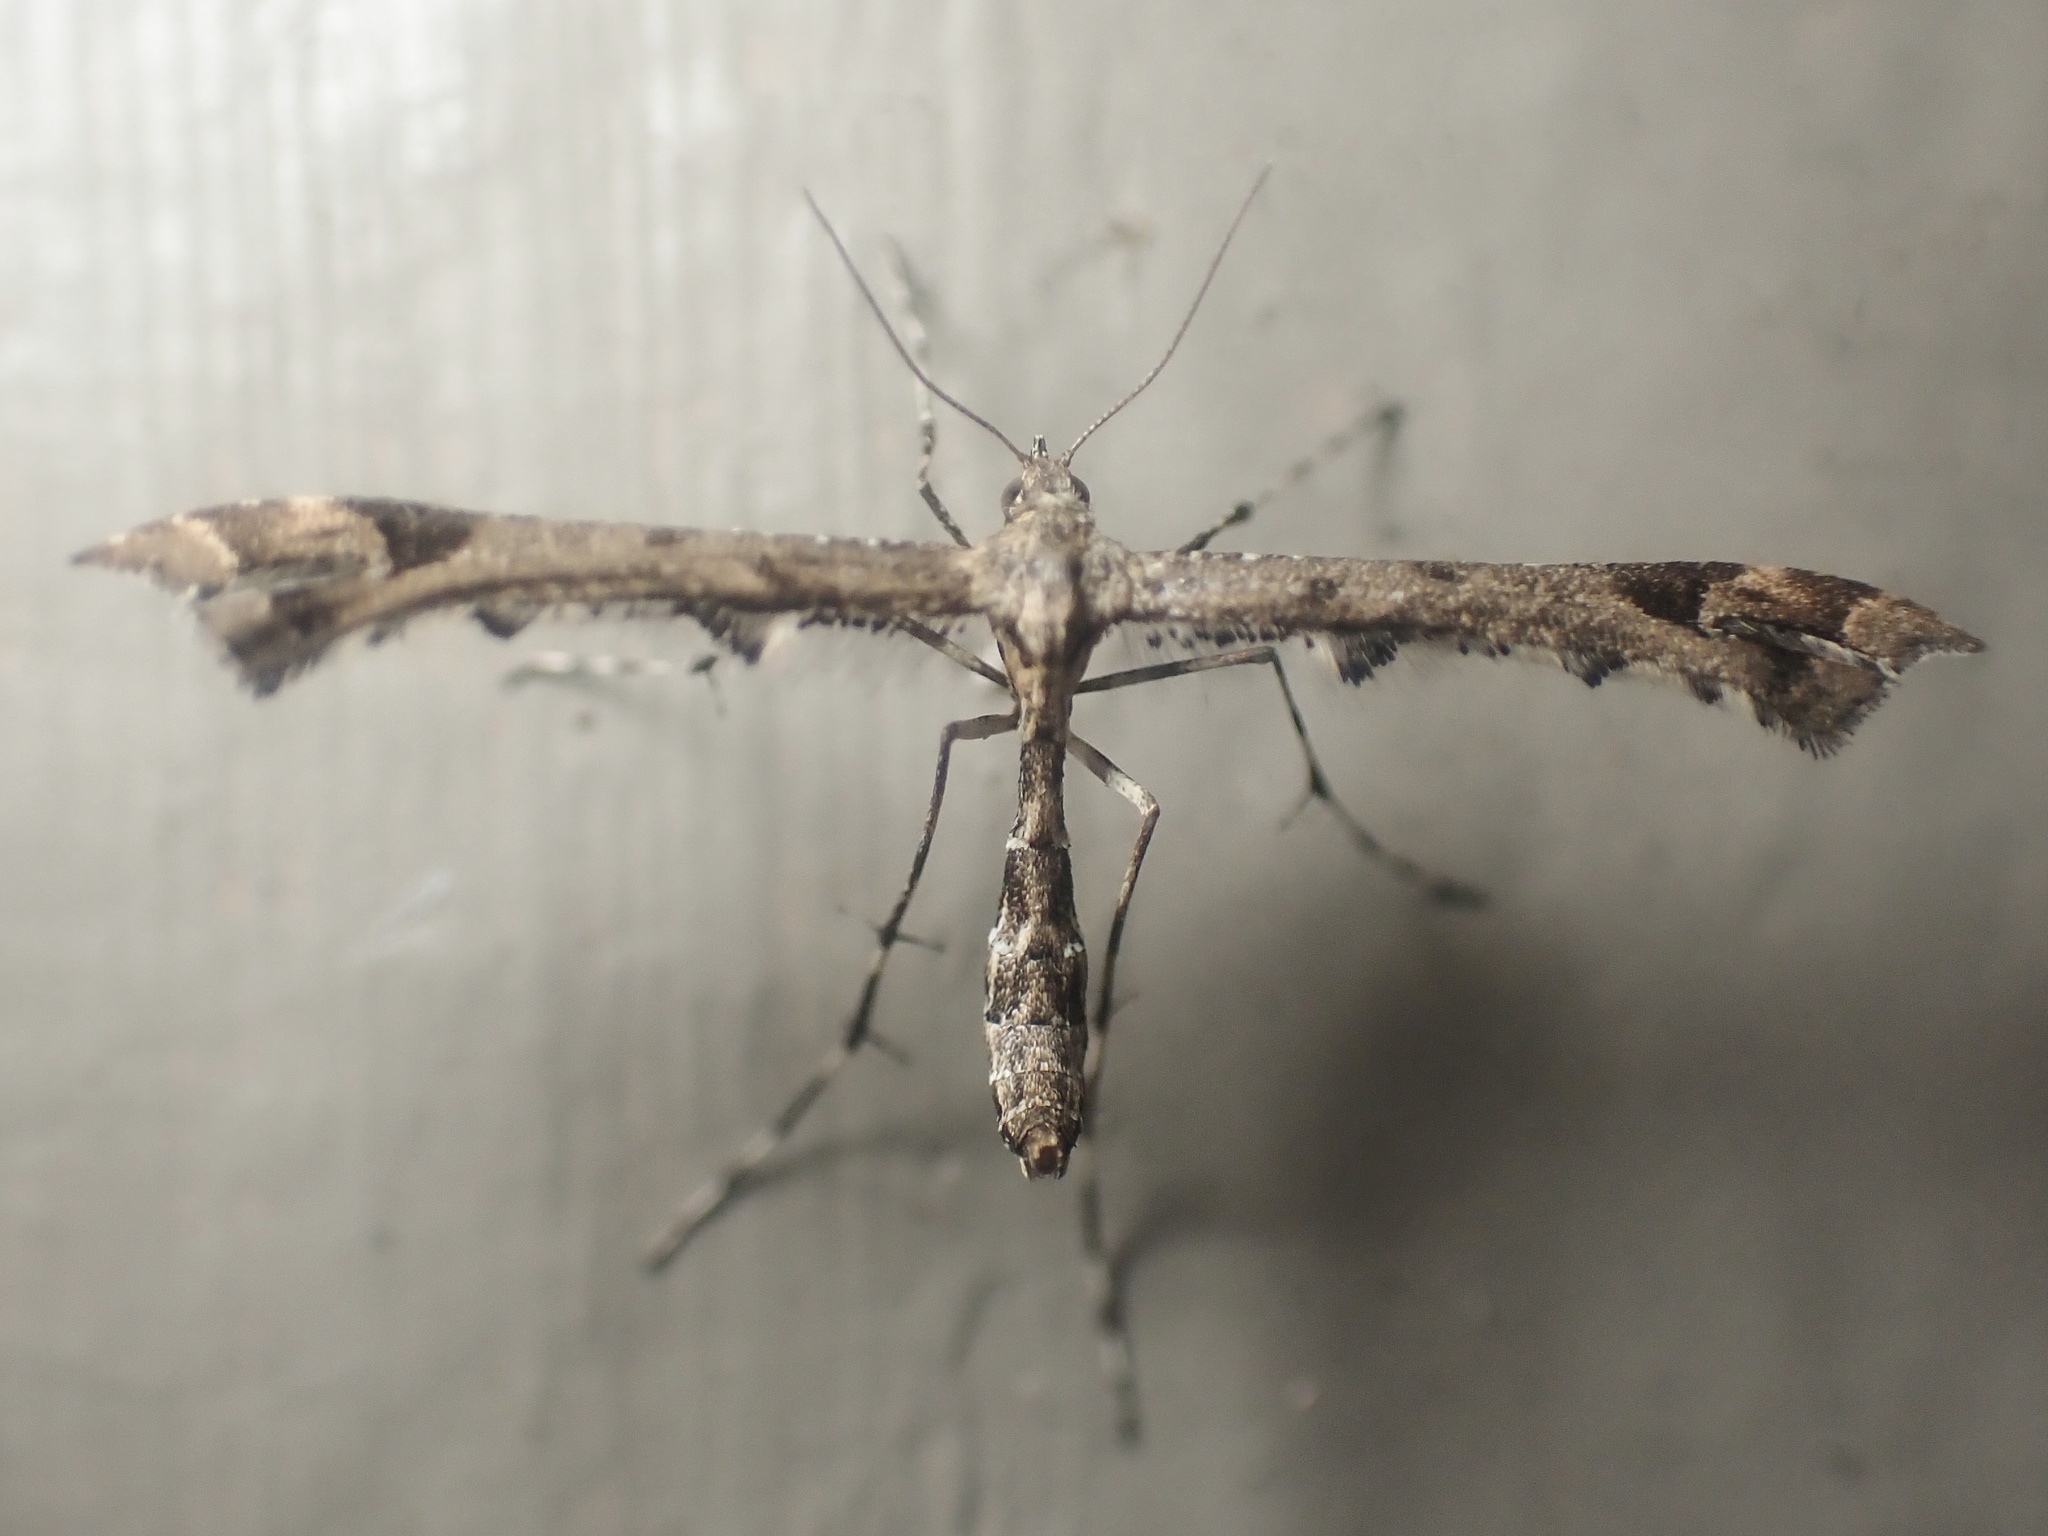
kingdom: Animalia
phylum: Arthropoda
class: Insecta
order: Lepidoptera
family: Pterophoridae
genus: Amblyptilia
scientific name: Amblyptilia pica
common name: Geranium plume moth
